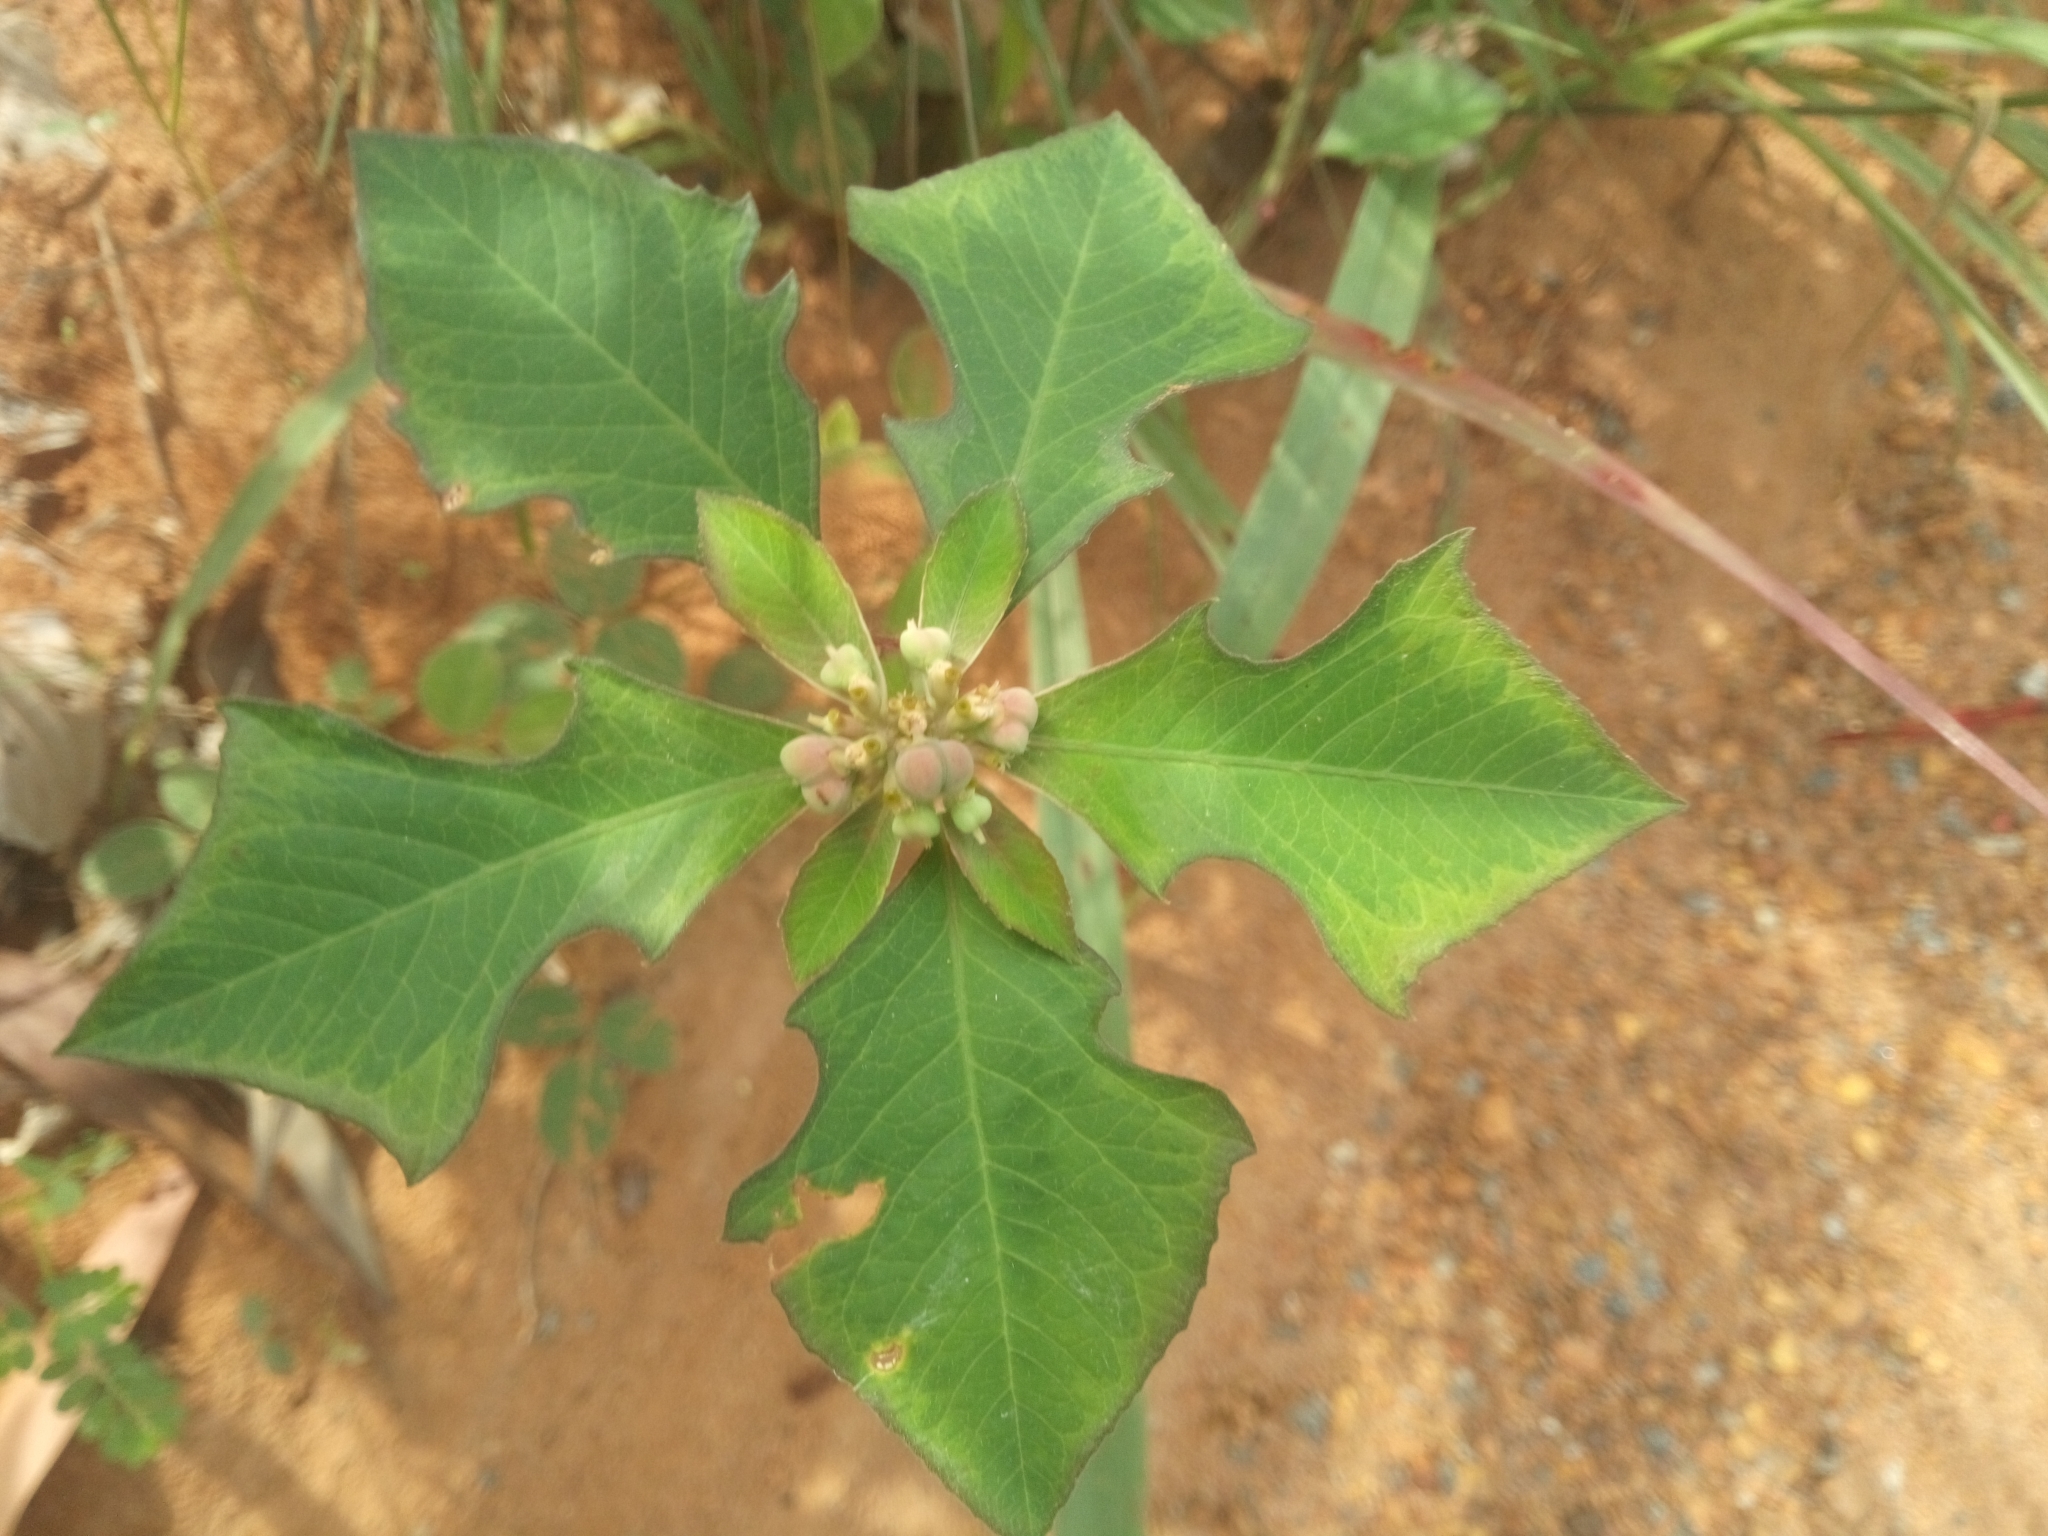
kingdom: Plantae
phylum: Tracheophyta
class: Magnoliopsida
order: Malpighiales
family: Euphorbiaceae
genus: Euphorbia
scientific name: Euphorbia heterophylla
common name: Mexican fireplant
